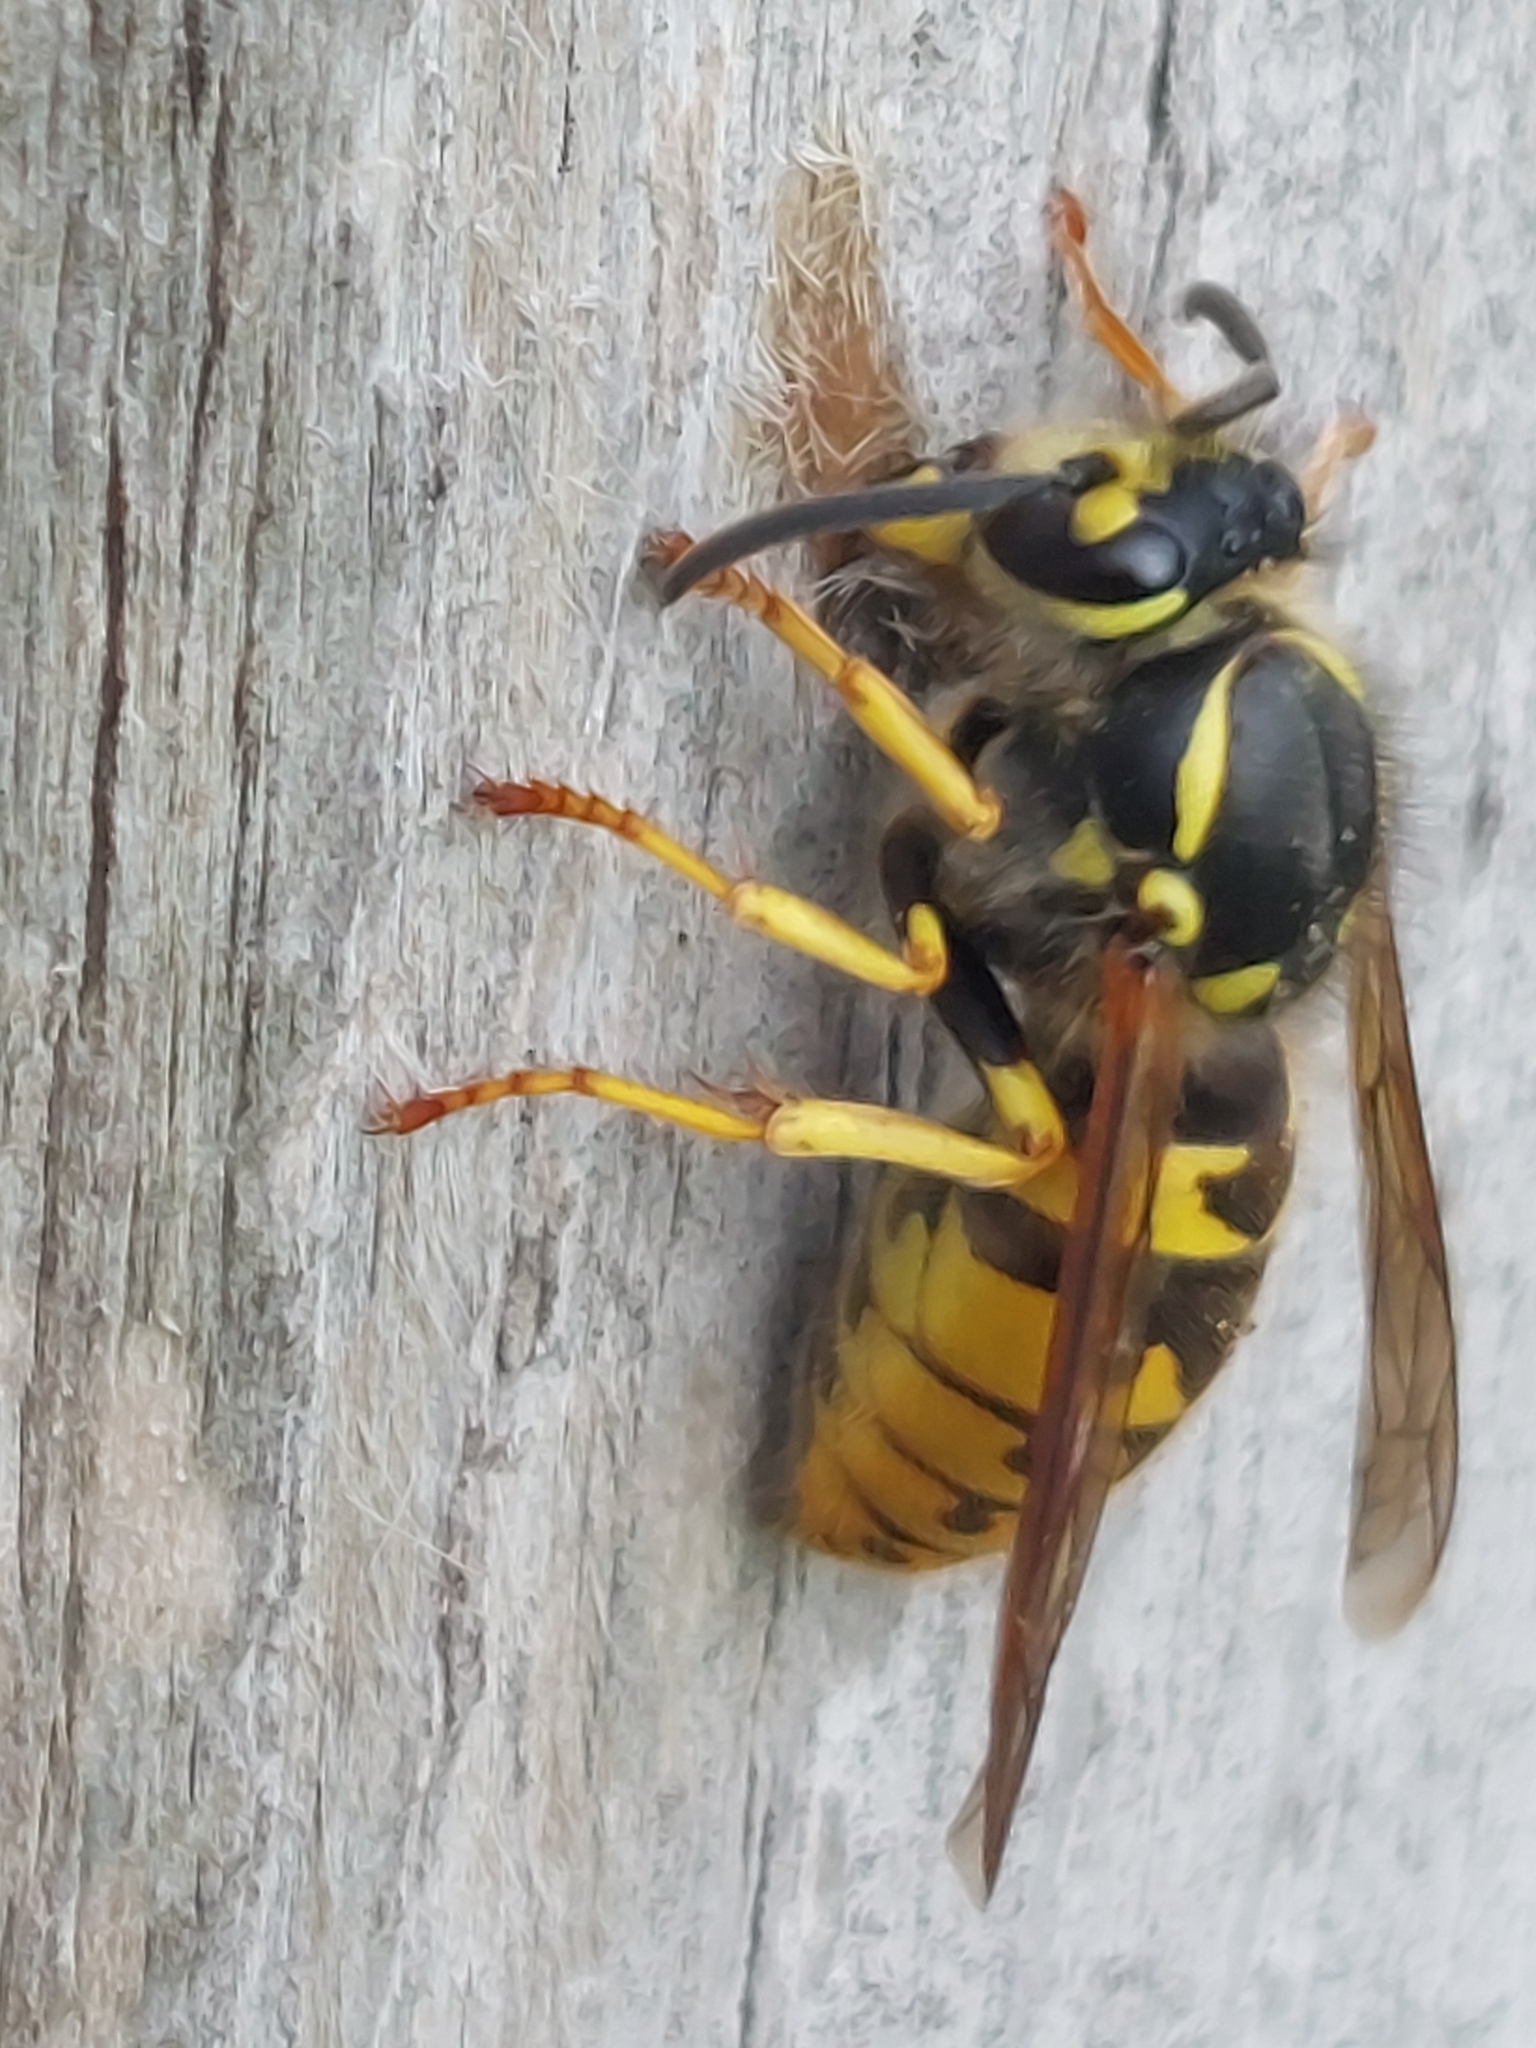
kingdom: Animalia
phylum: Arthropoda
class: Insecta
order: Hymenoptera
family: Vespidae
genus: Vespula
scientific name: Vespula germanica
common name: German wasp
